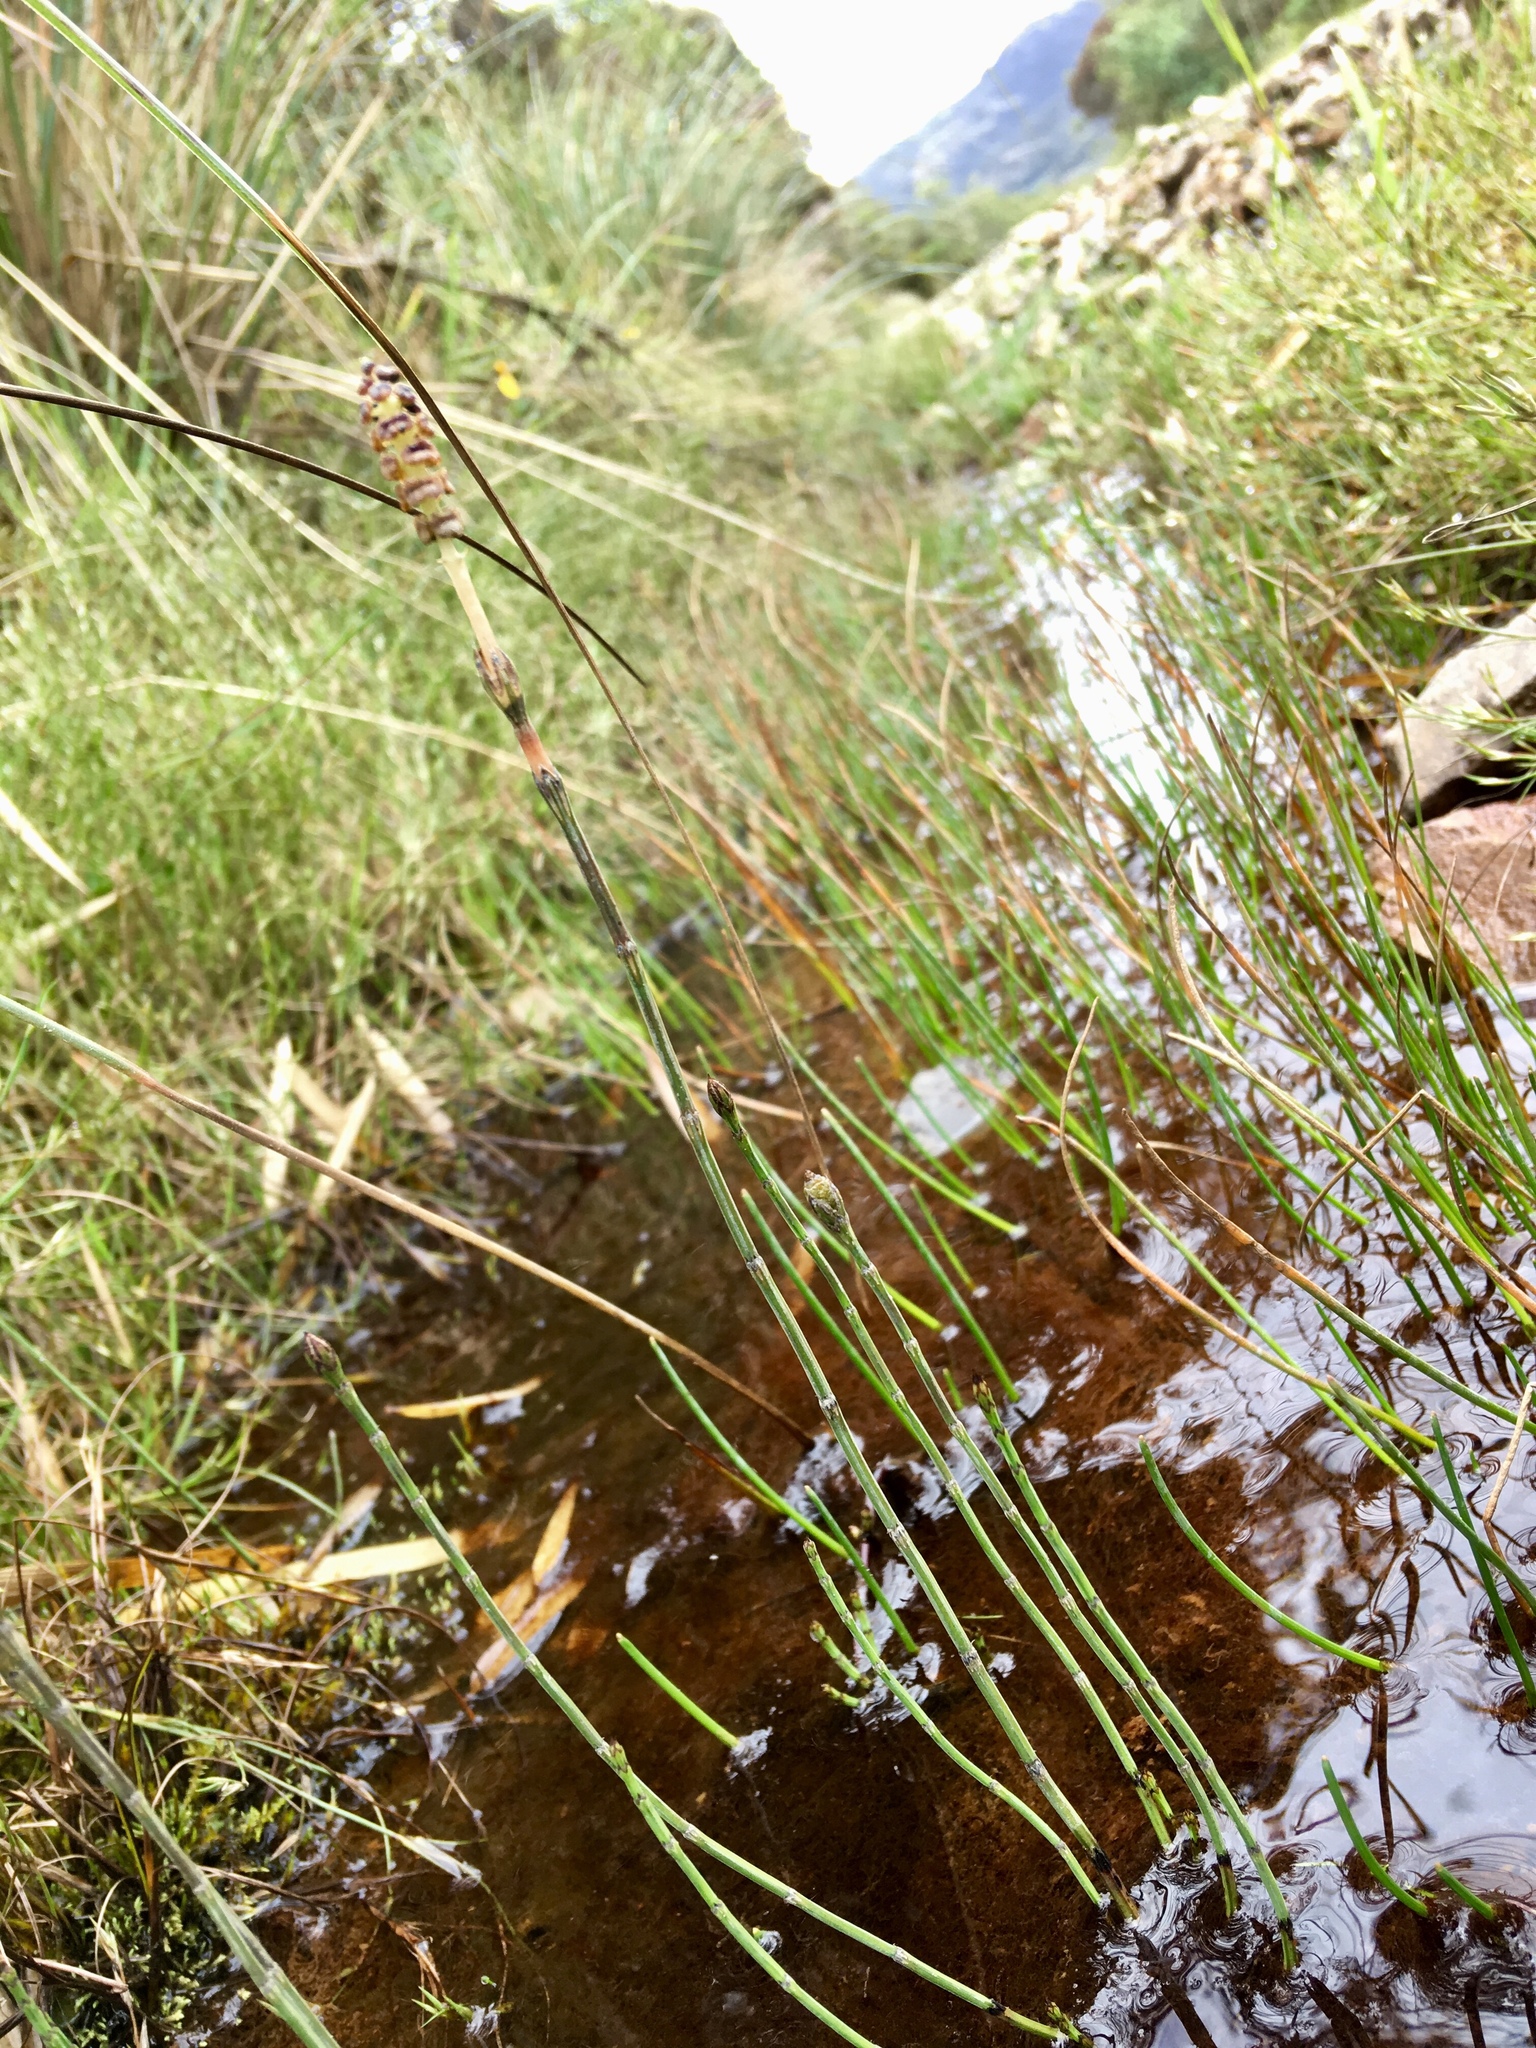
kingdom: Plantae
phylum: Tracheophyta
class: Polypodiopsida
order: Equisetales
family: Equisetaceae
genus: Equisetum
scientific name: Equisetum bogotense
